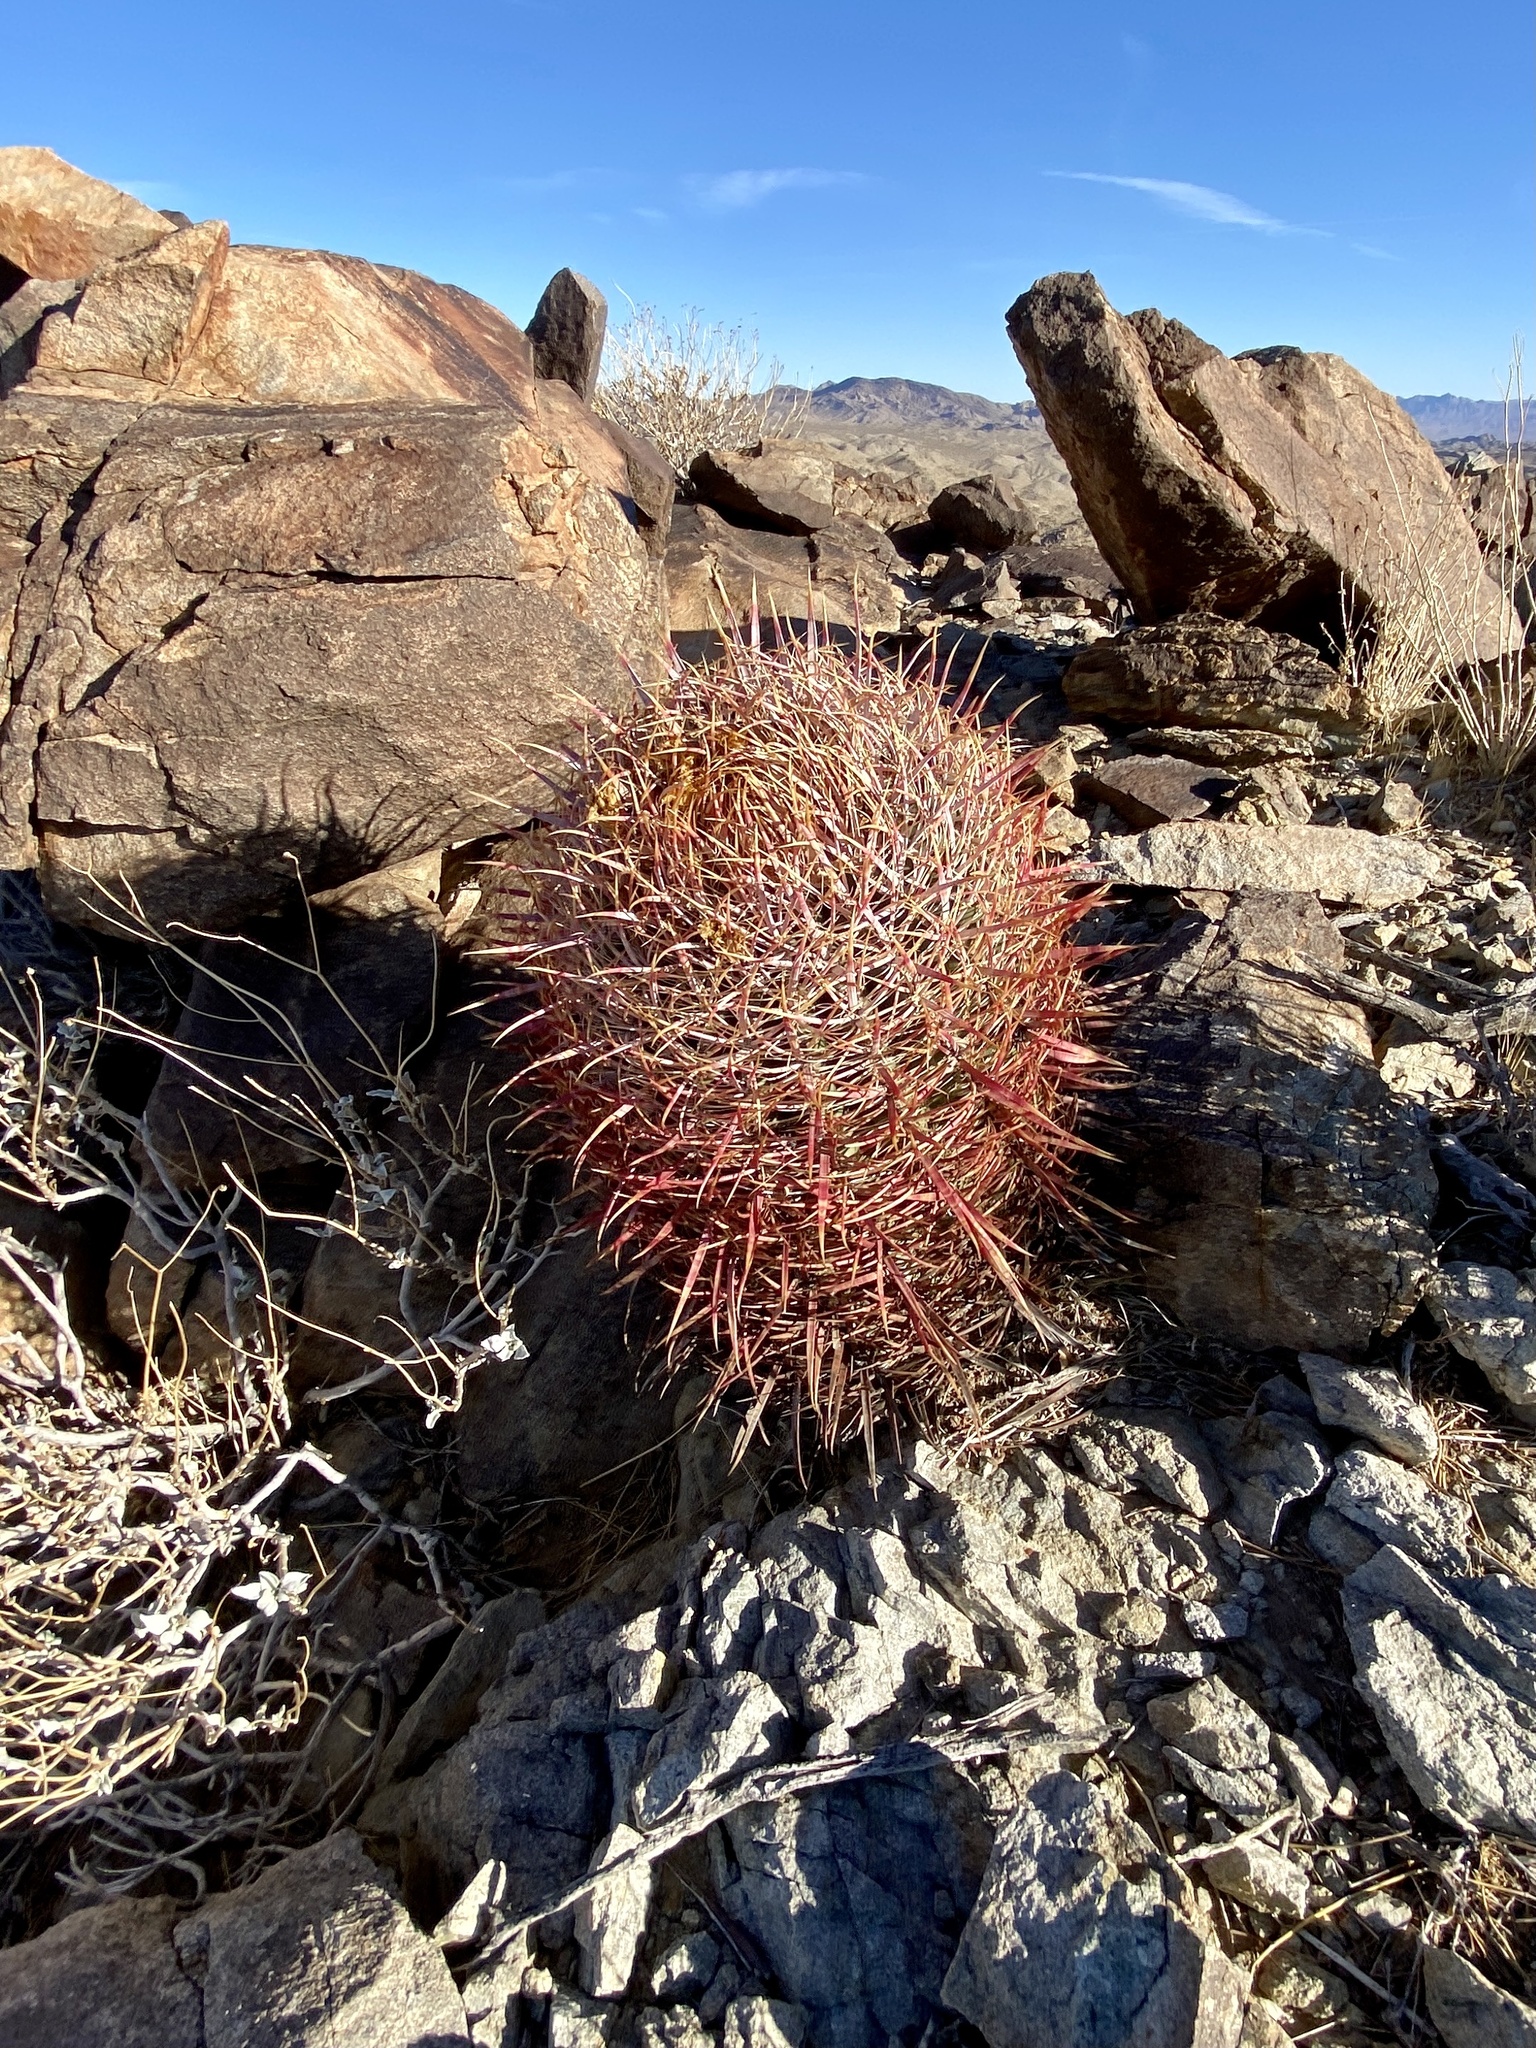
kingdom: Plantae
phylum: Tracheophyta
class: Magnoliopsida
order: Caryophyllales
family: Cactaceae
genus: Ferocactus
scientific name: Ferocactus cylindraceus
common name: California barrel cactus
